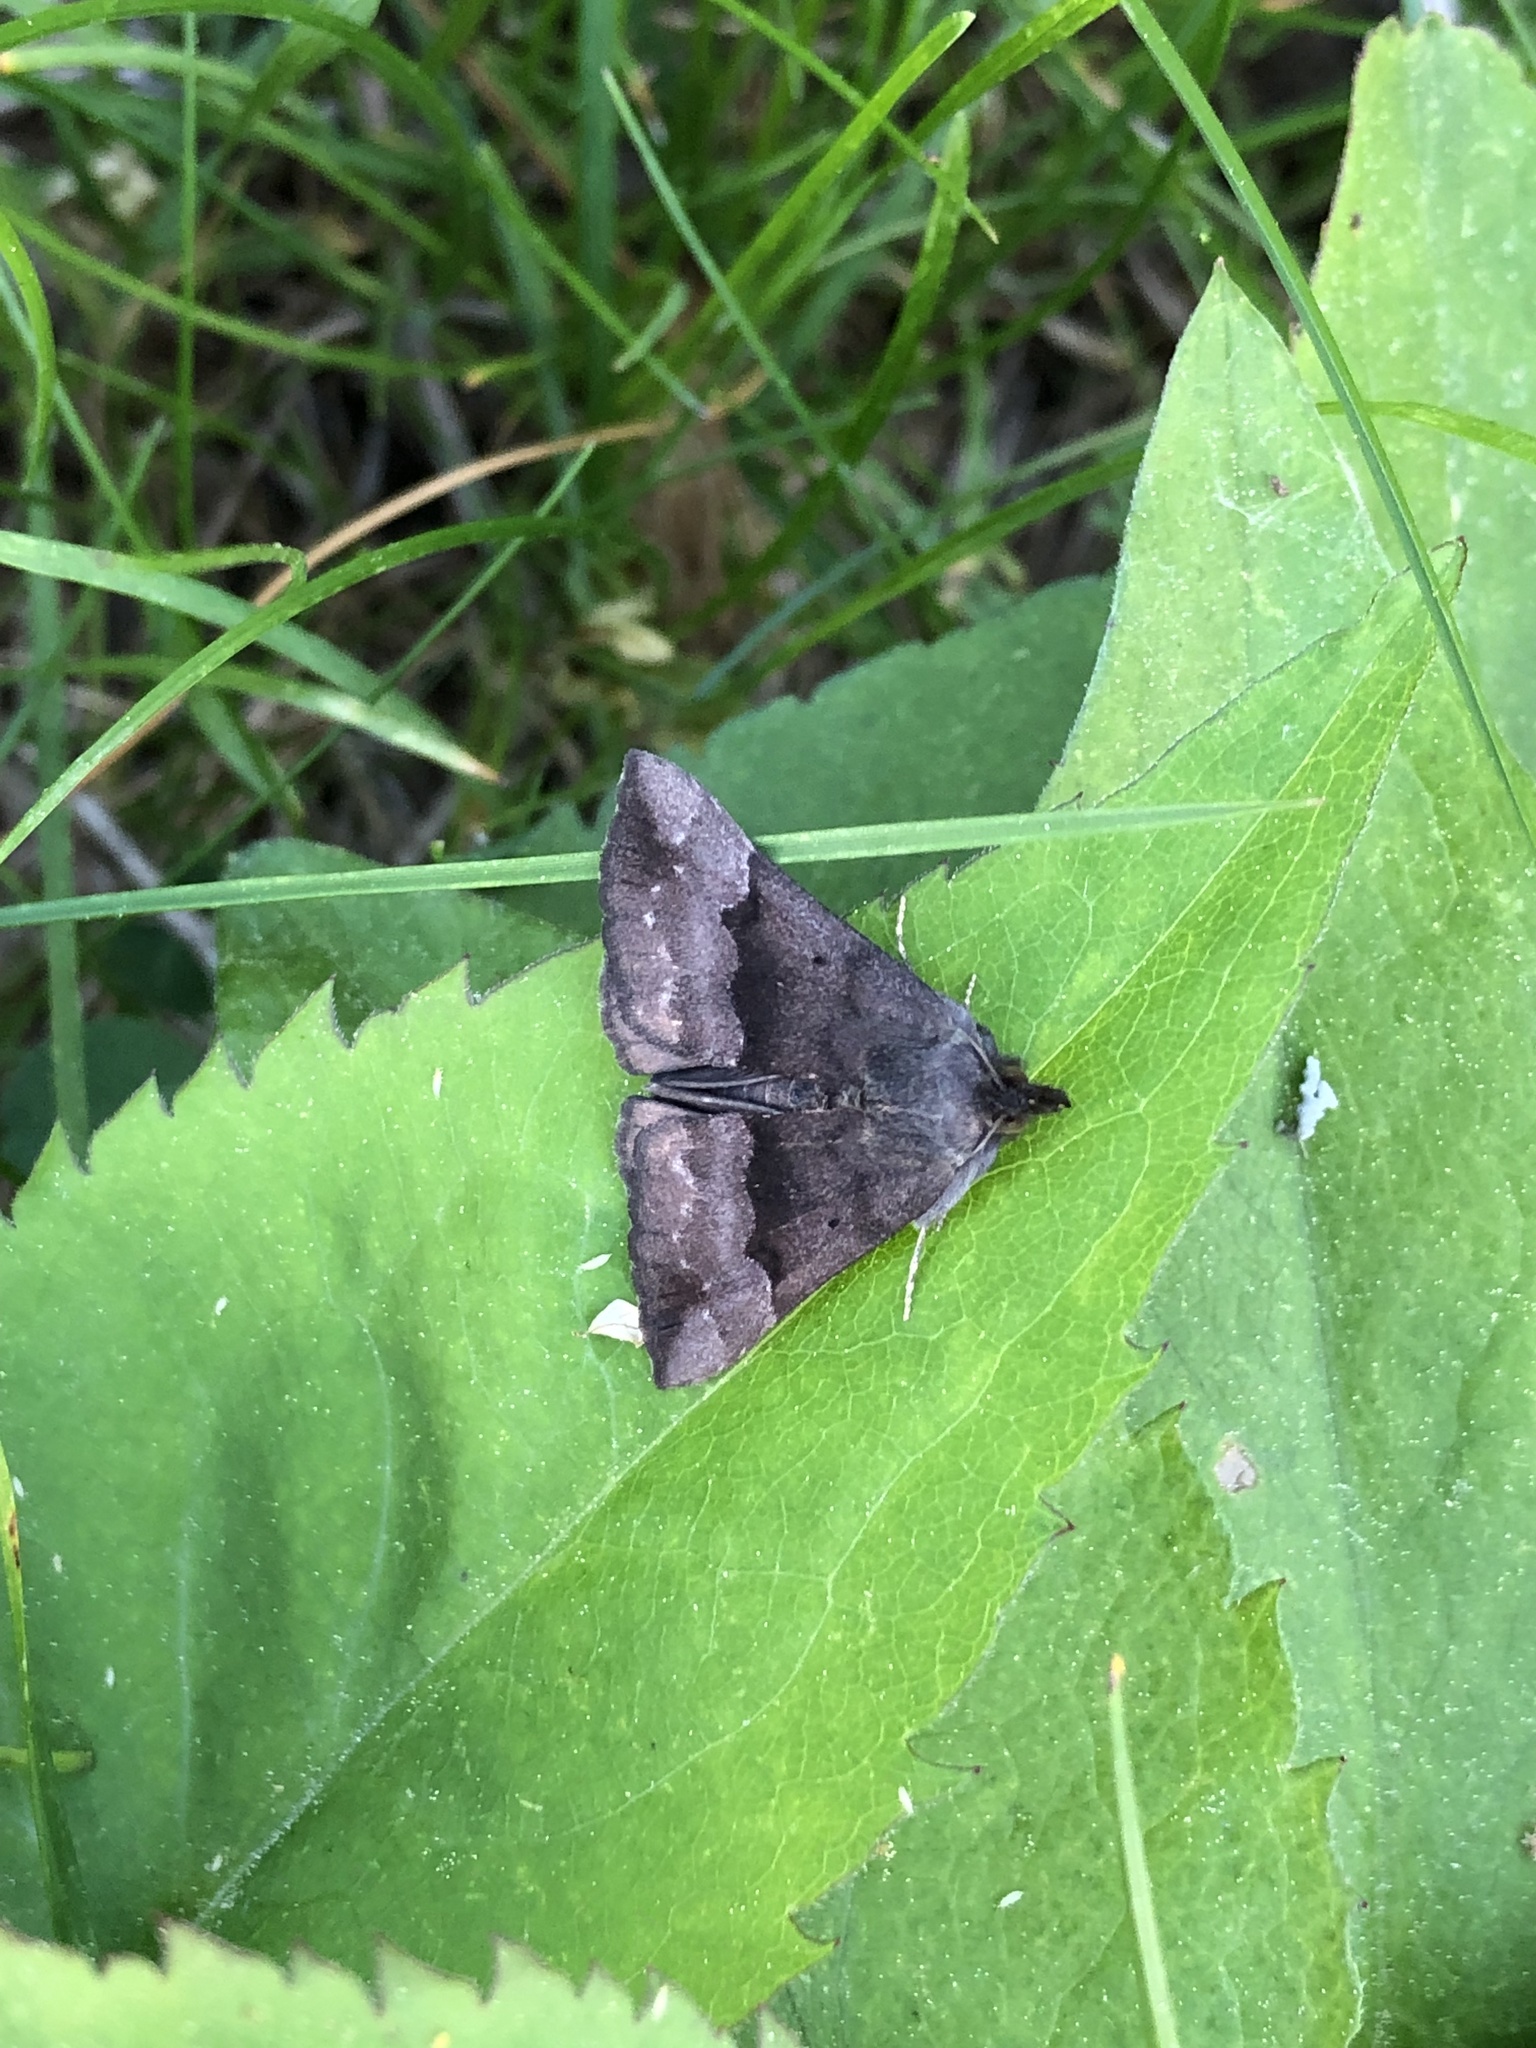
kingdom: Animalia
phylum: Arthropoda
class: Insecta
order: Lepidoptera
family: Erebidae
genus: Hypena
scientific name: Hypena madefactalis
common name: Gray-edged snout
